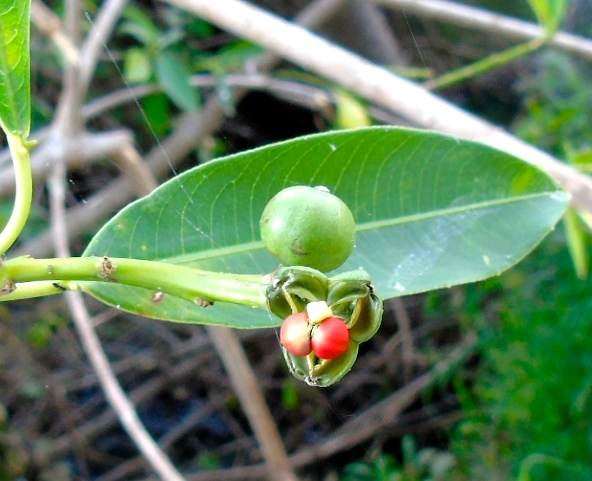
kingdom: Plantae
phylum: Tracheophyta
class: Magnoliopsida
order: Malpighiales
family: Euphorbiaceae
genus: Sapium
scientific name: Sapium lateriflorum
